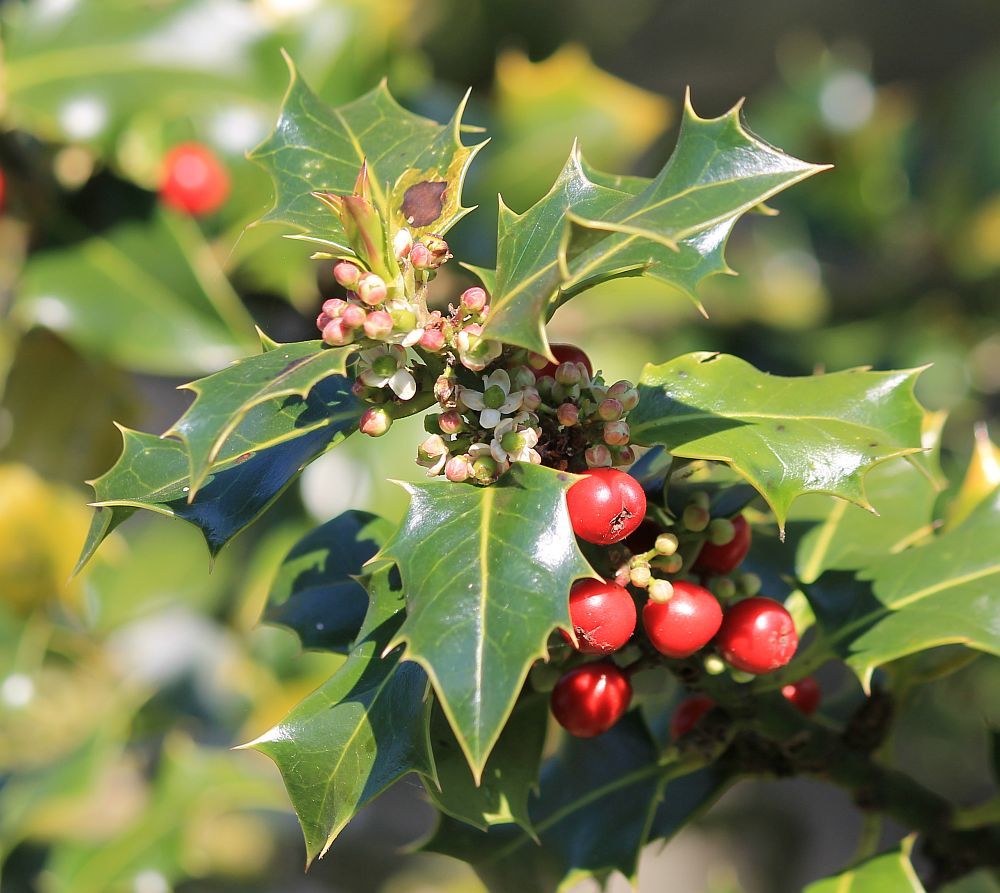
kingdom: Plantae
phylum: Tracheophyta
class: Magnoliopsida
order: Aquifoliales
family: Aquifoliaceae
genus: Ilex
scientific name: Ilex aquifolium
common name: English holly
